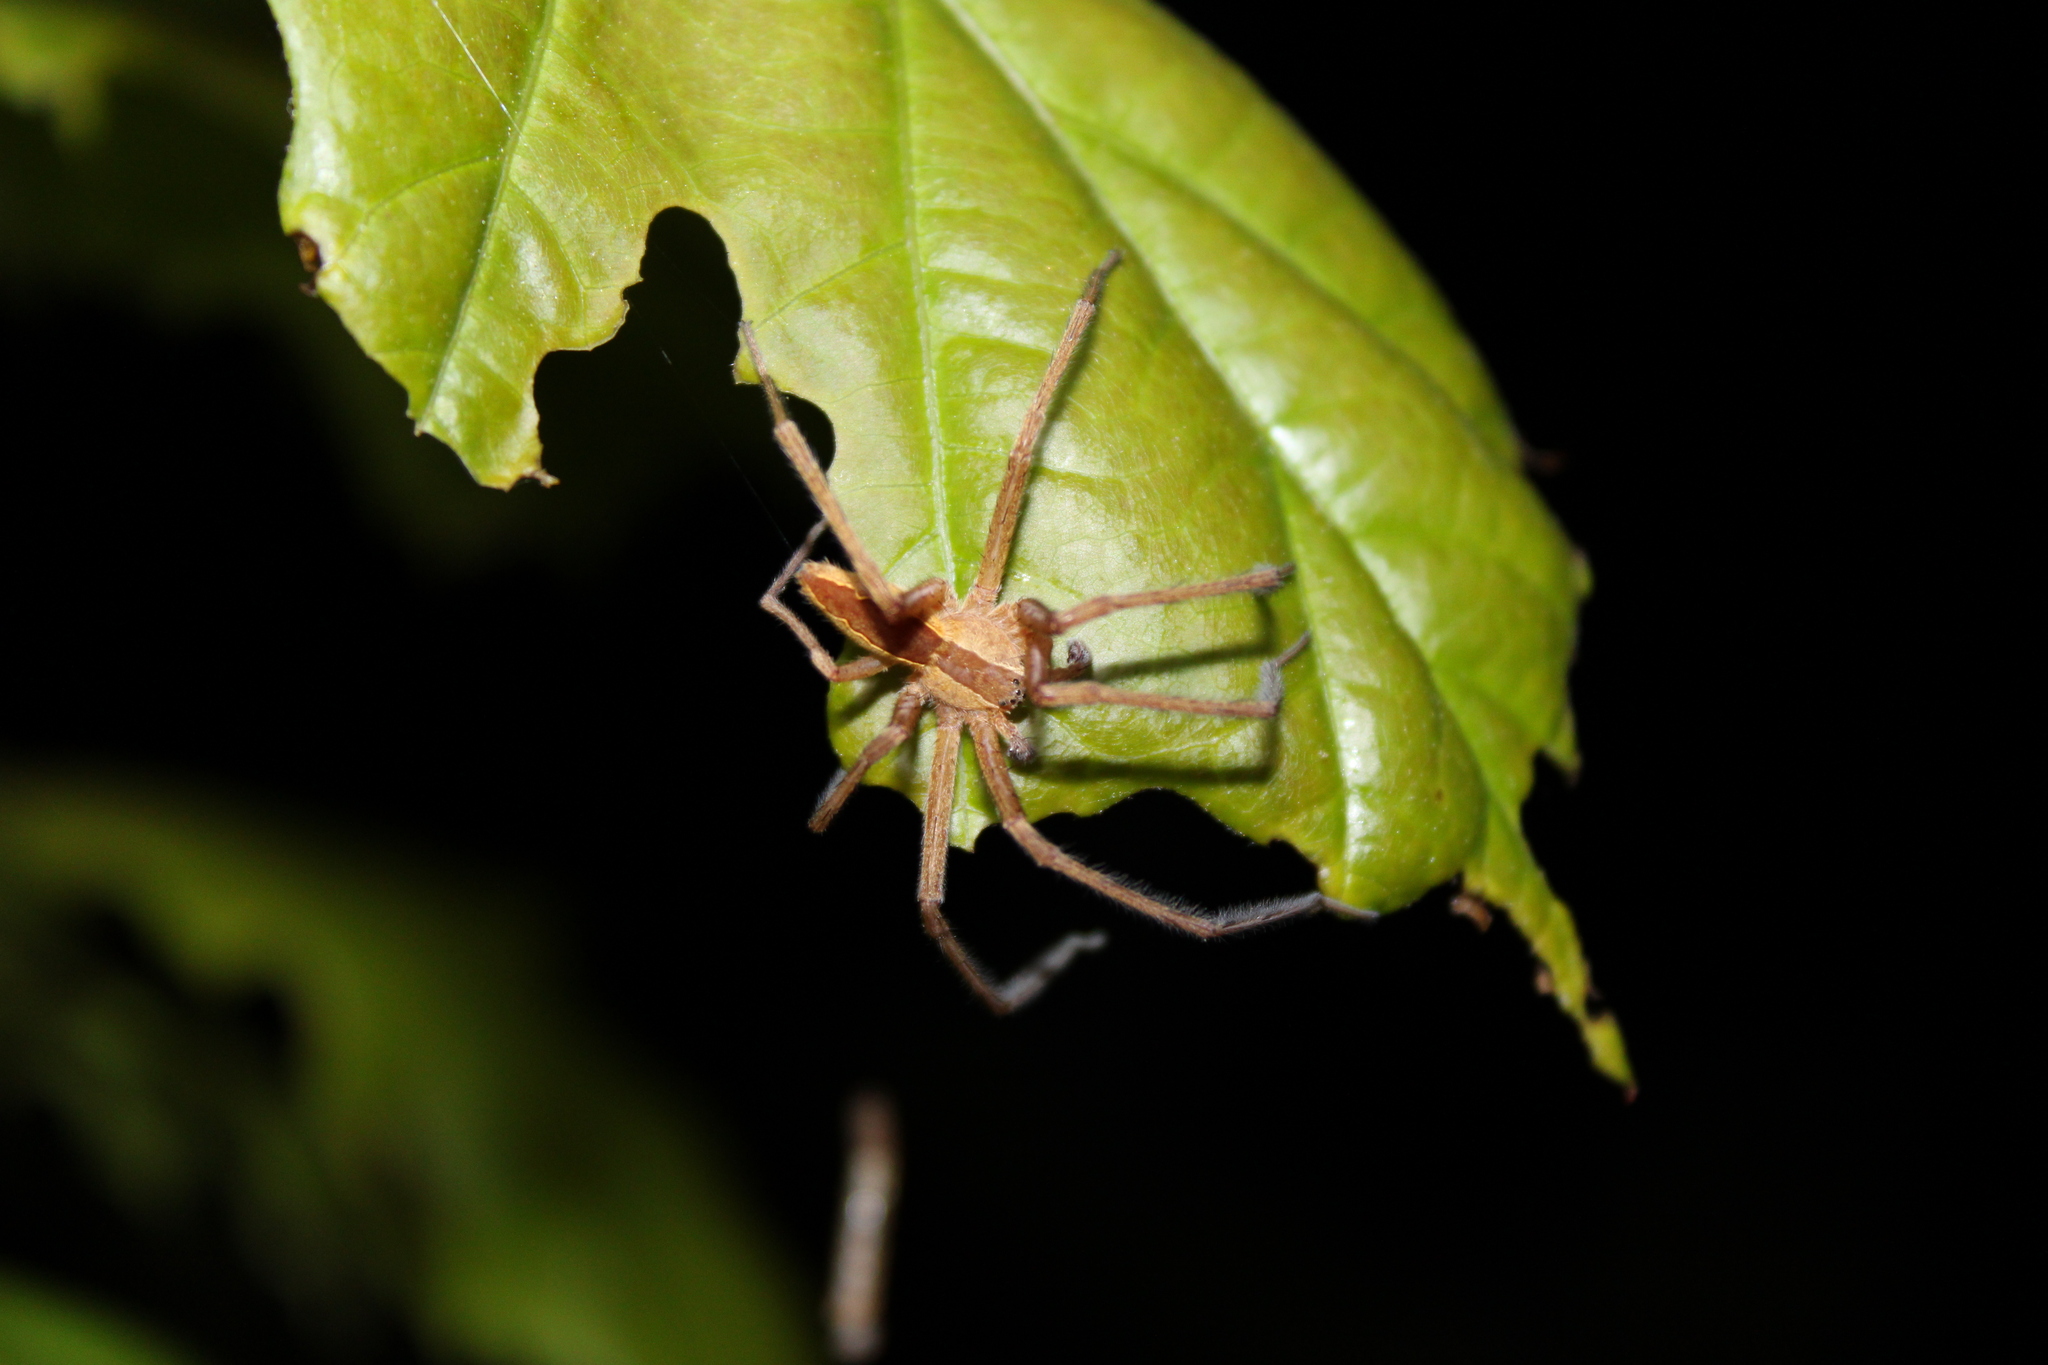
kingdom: Animalia
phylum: Arthropoda
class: Arachnida
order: Araneae
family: Pisauridae
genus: Pisaurina
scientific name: Pisaurina mira
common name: American nursery web spider
